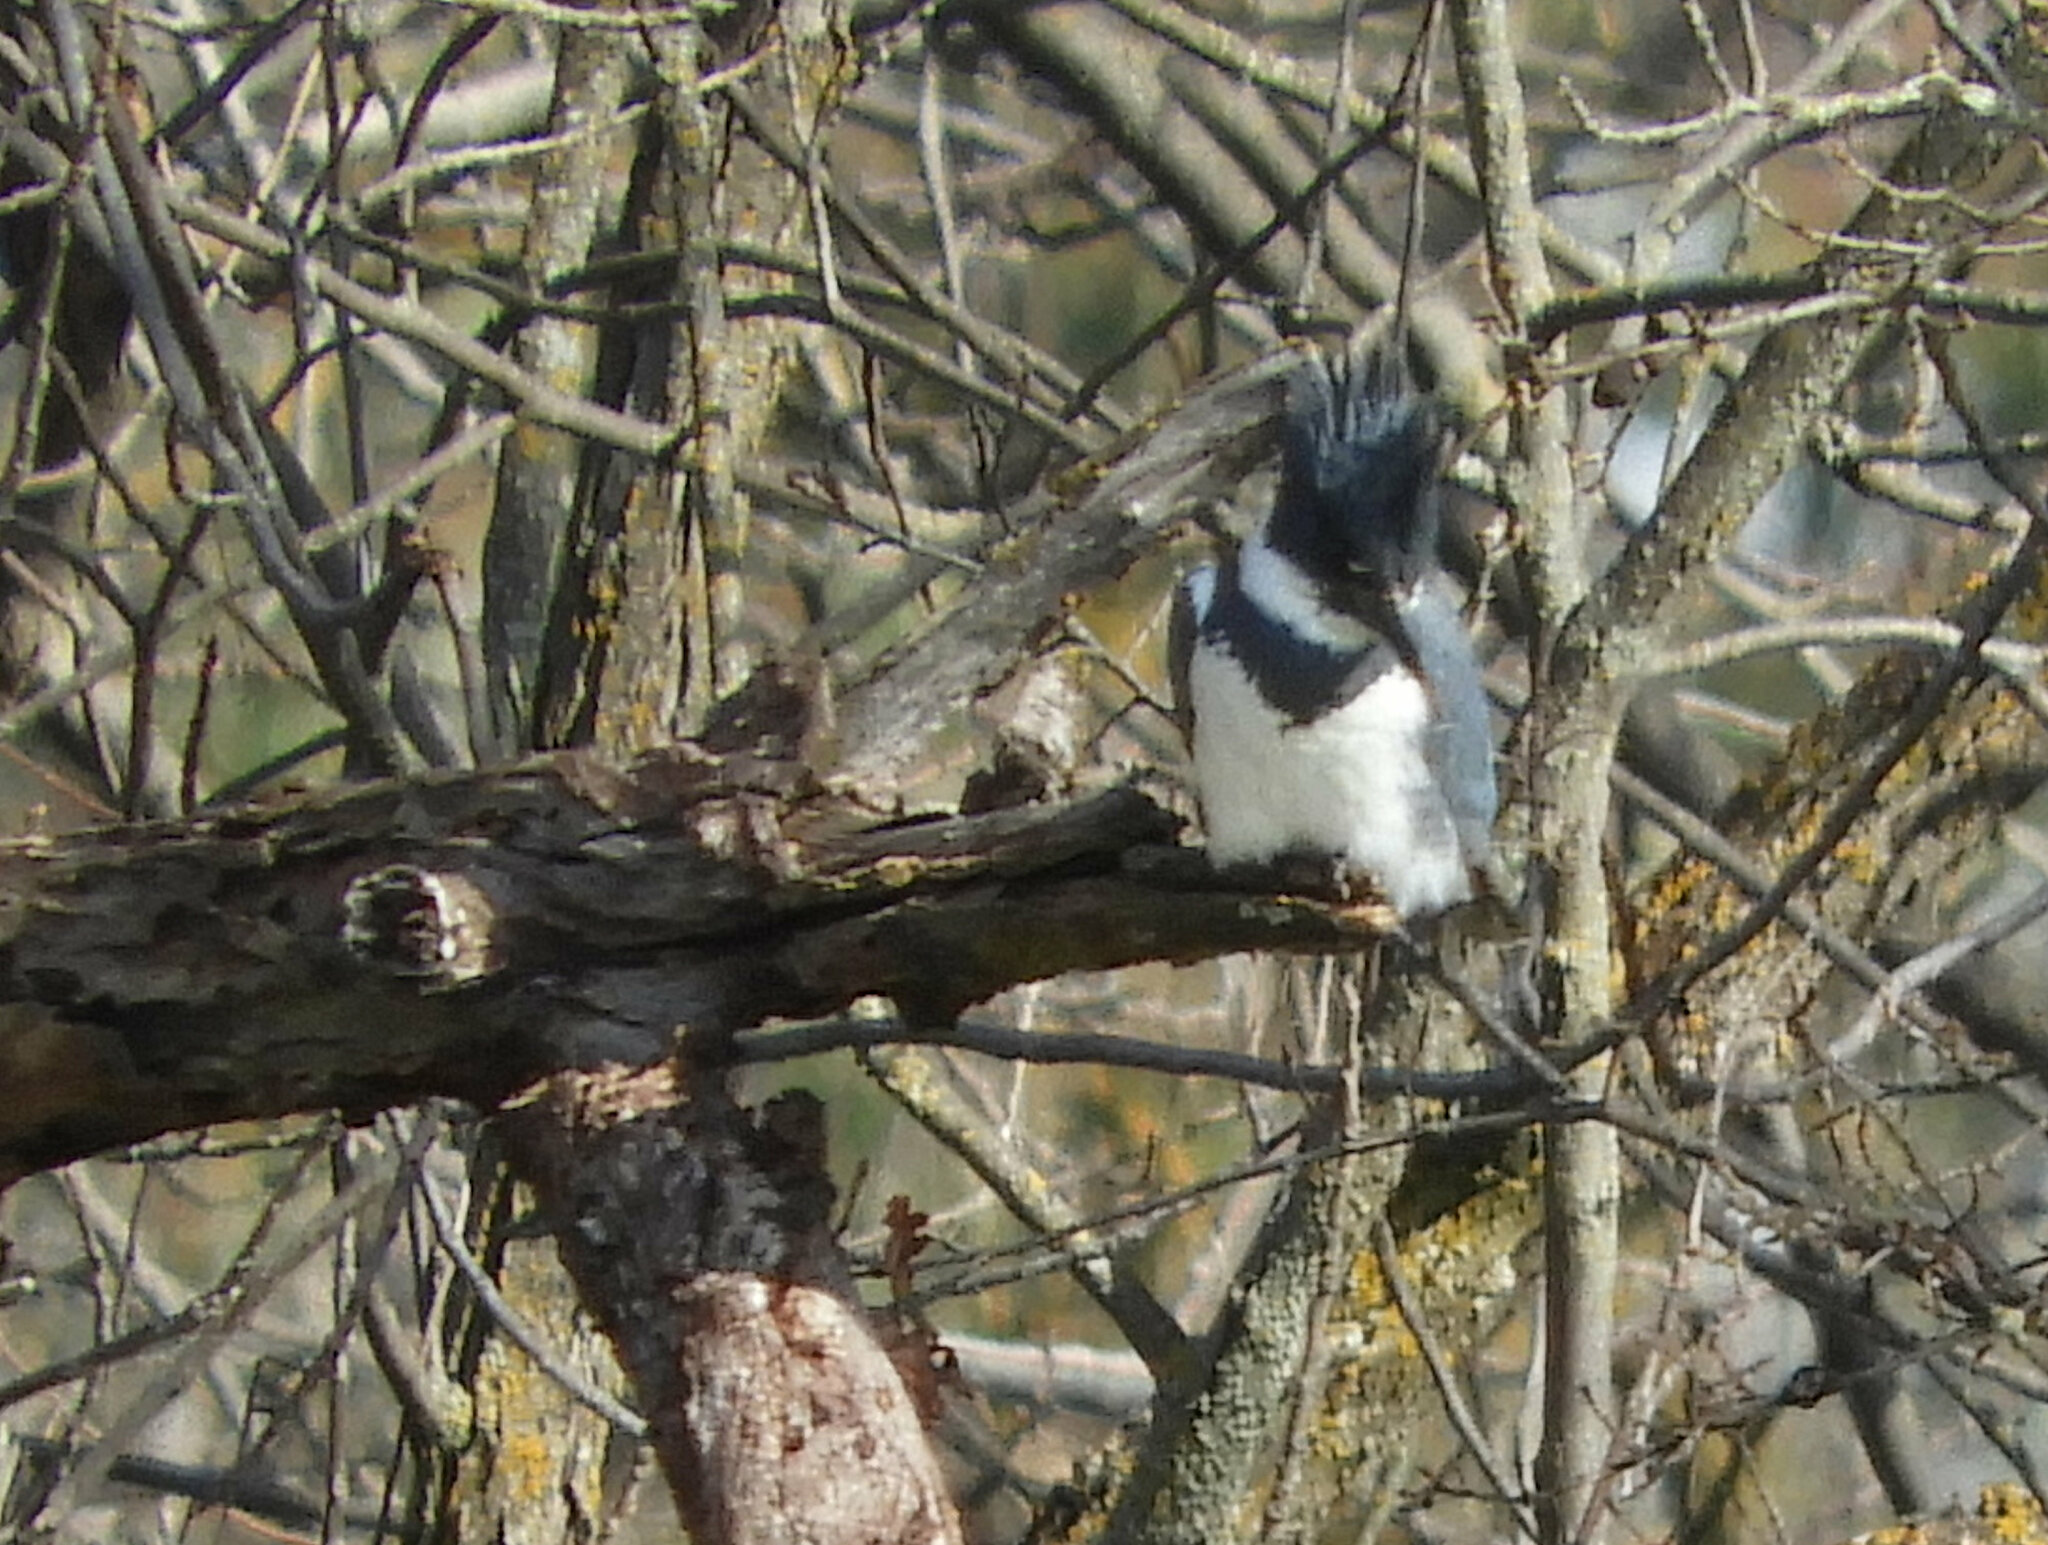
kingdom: Animalia
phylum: Chordata
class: Aves
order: Coraciiformes
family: Alcedinidae
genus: Megaceryle
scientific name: Megaceryle alcyon
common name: Belted kingfisher
